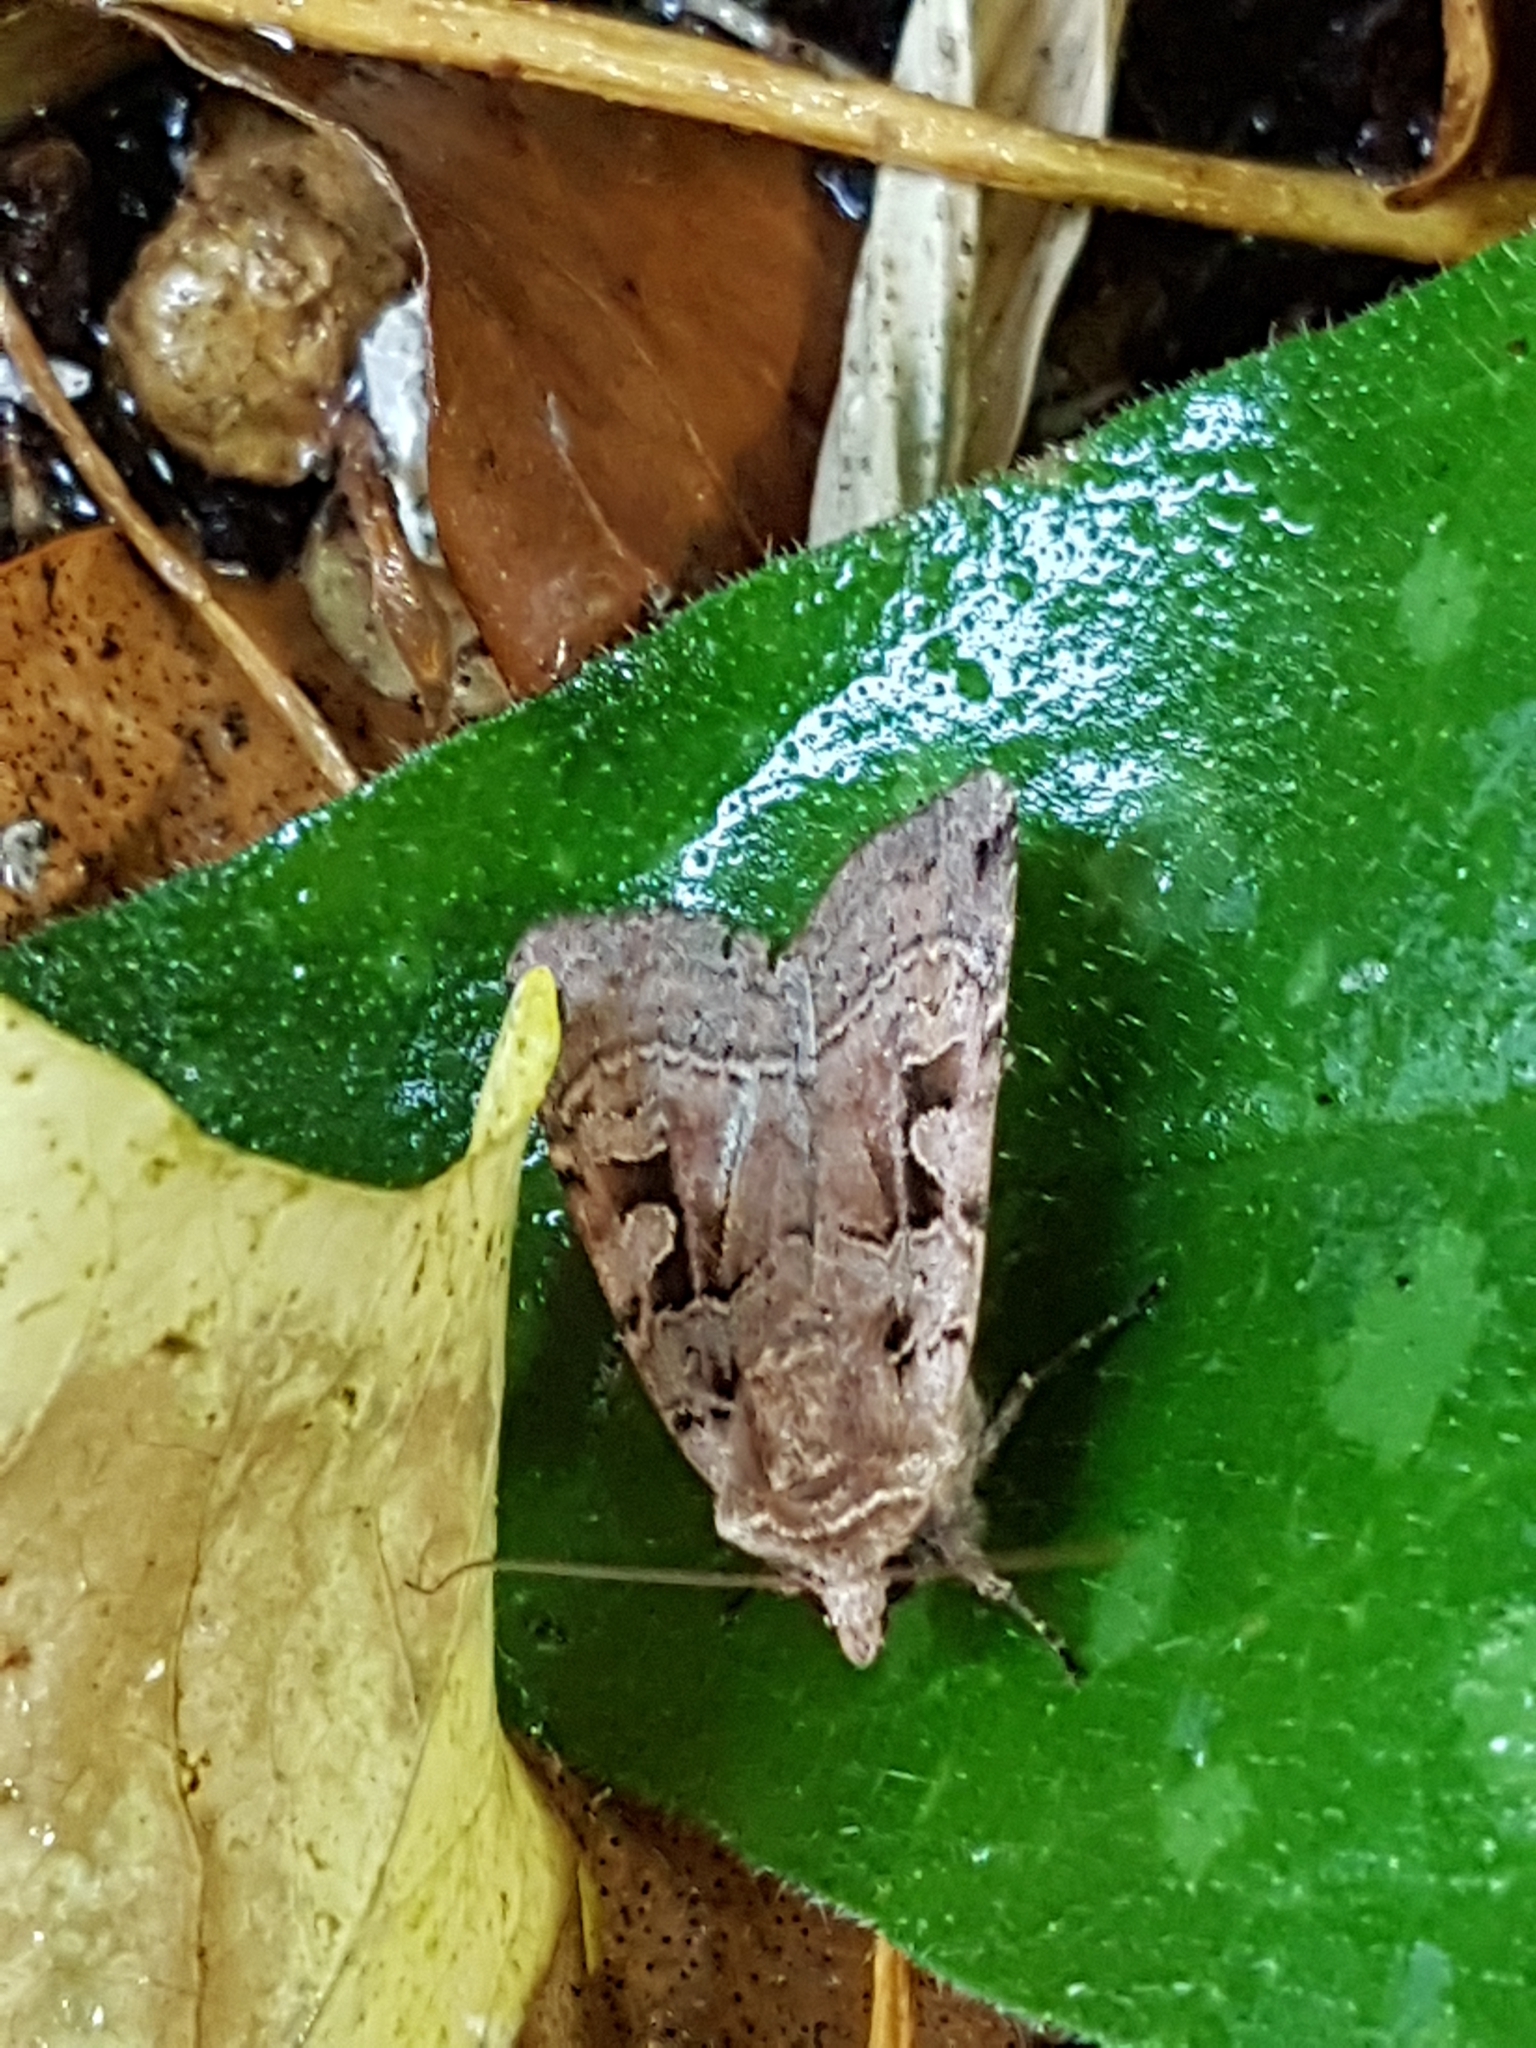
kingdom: Animalia
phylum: Arthropoda
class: Insecta
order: Lepidoptera
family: Noctuidae
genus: Xestia
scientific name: Xestia triangulum
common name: Double square-spot
